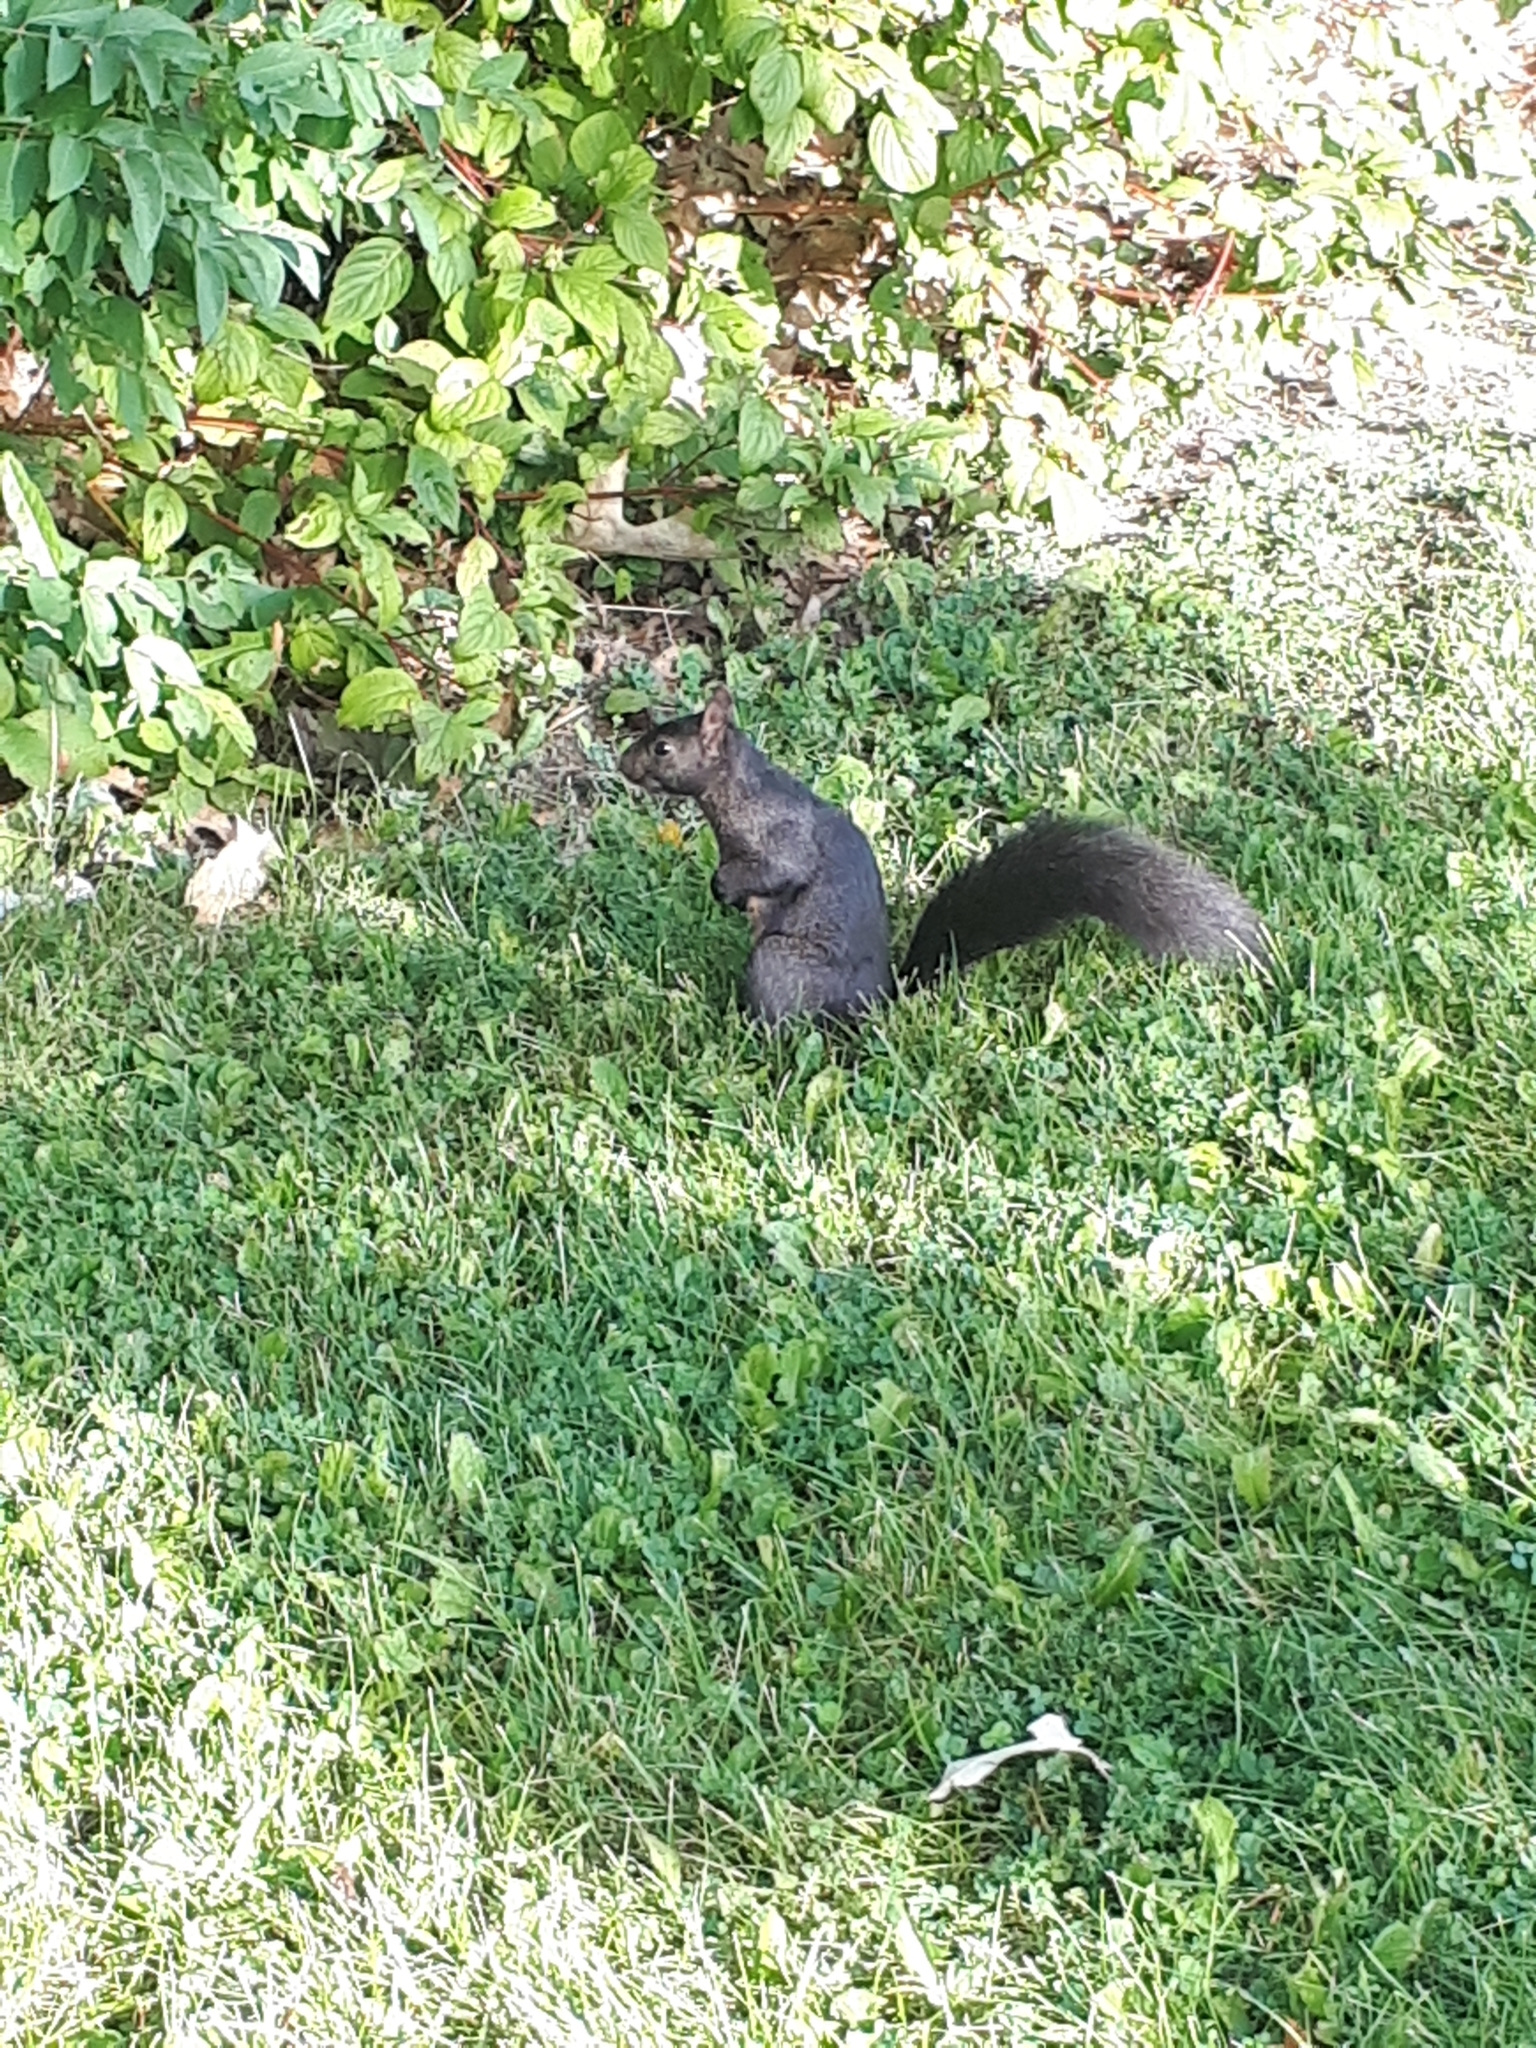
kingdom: Animalia
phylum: Chordata
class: Mammalia
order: Rodentia
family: Sciuridae
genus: Sciurus
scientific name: Sciurus carolinensis
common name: Eastern gray squirrel
